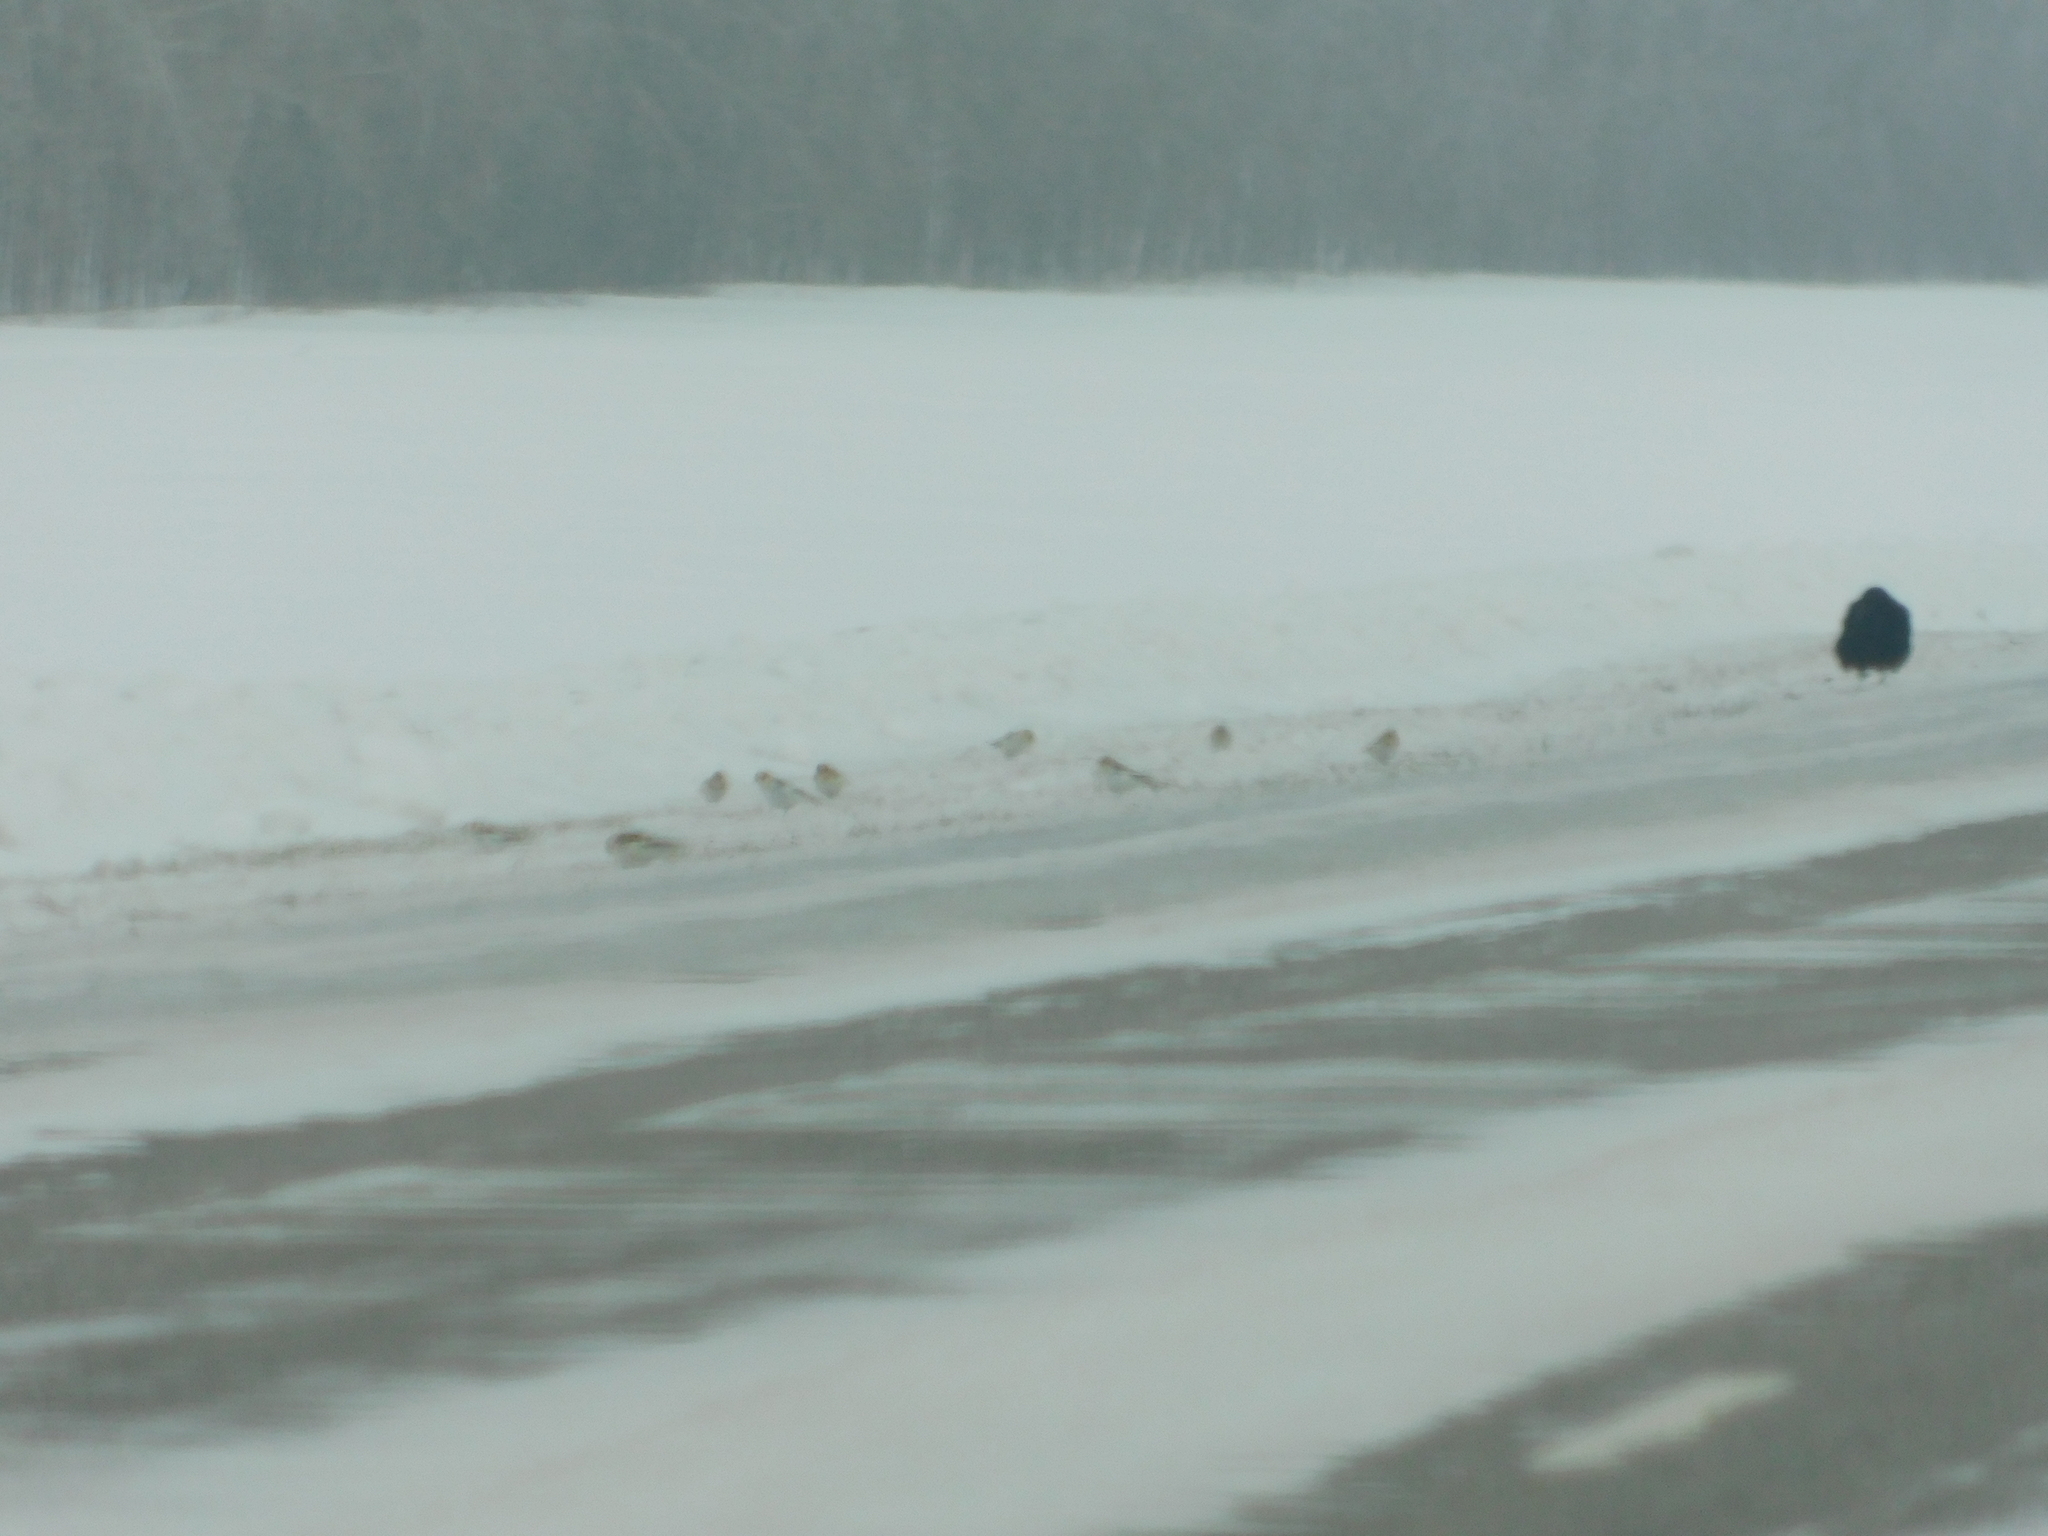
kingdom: Animalia
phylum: Chordata
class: Aves
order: Passeriformes
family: Corvidae
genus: Corvus
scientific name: Corvus corax
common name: Common raven
